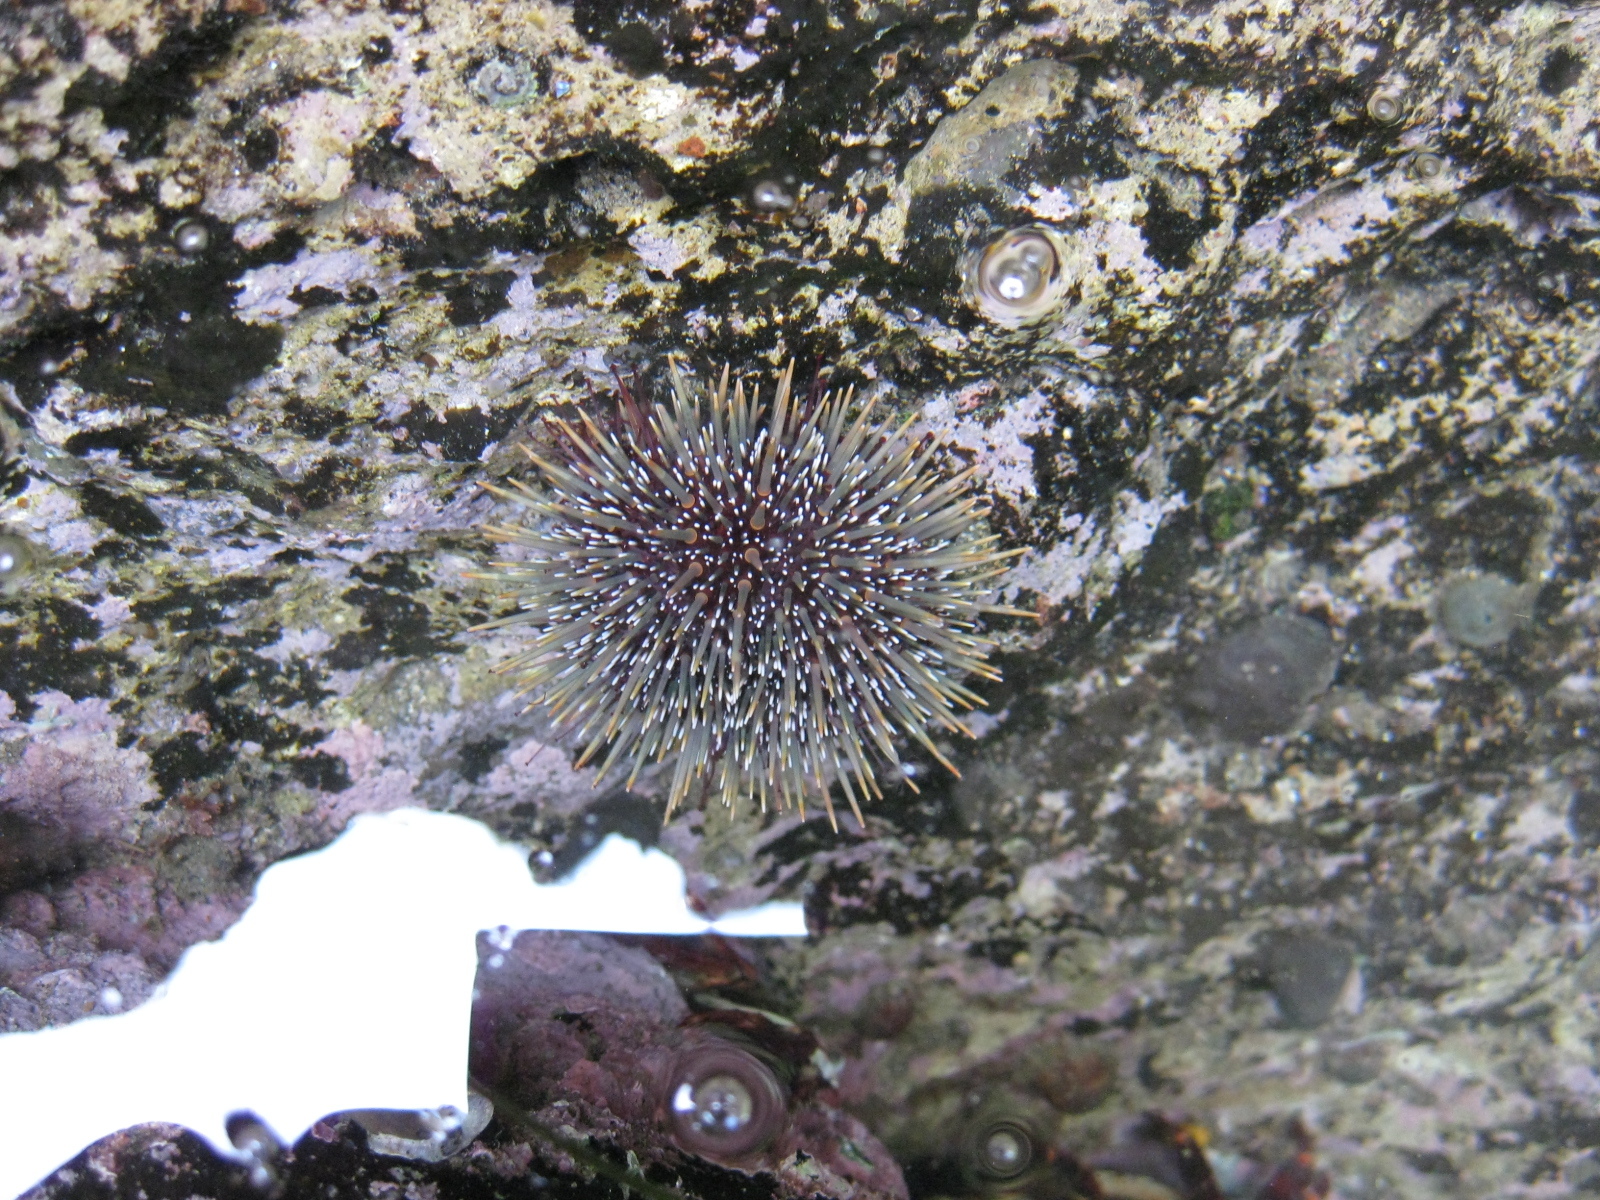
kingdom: Animalia
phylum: Echinodermata
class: Echinoidea
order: Camarodonta
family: Echinometridae
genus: Evechinus
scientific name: Evechinus chloroticus
